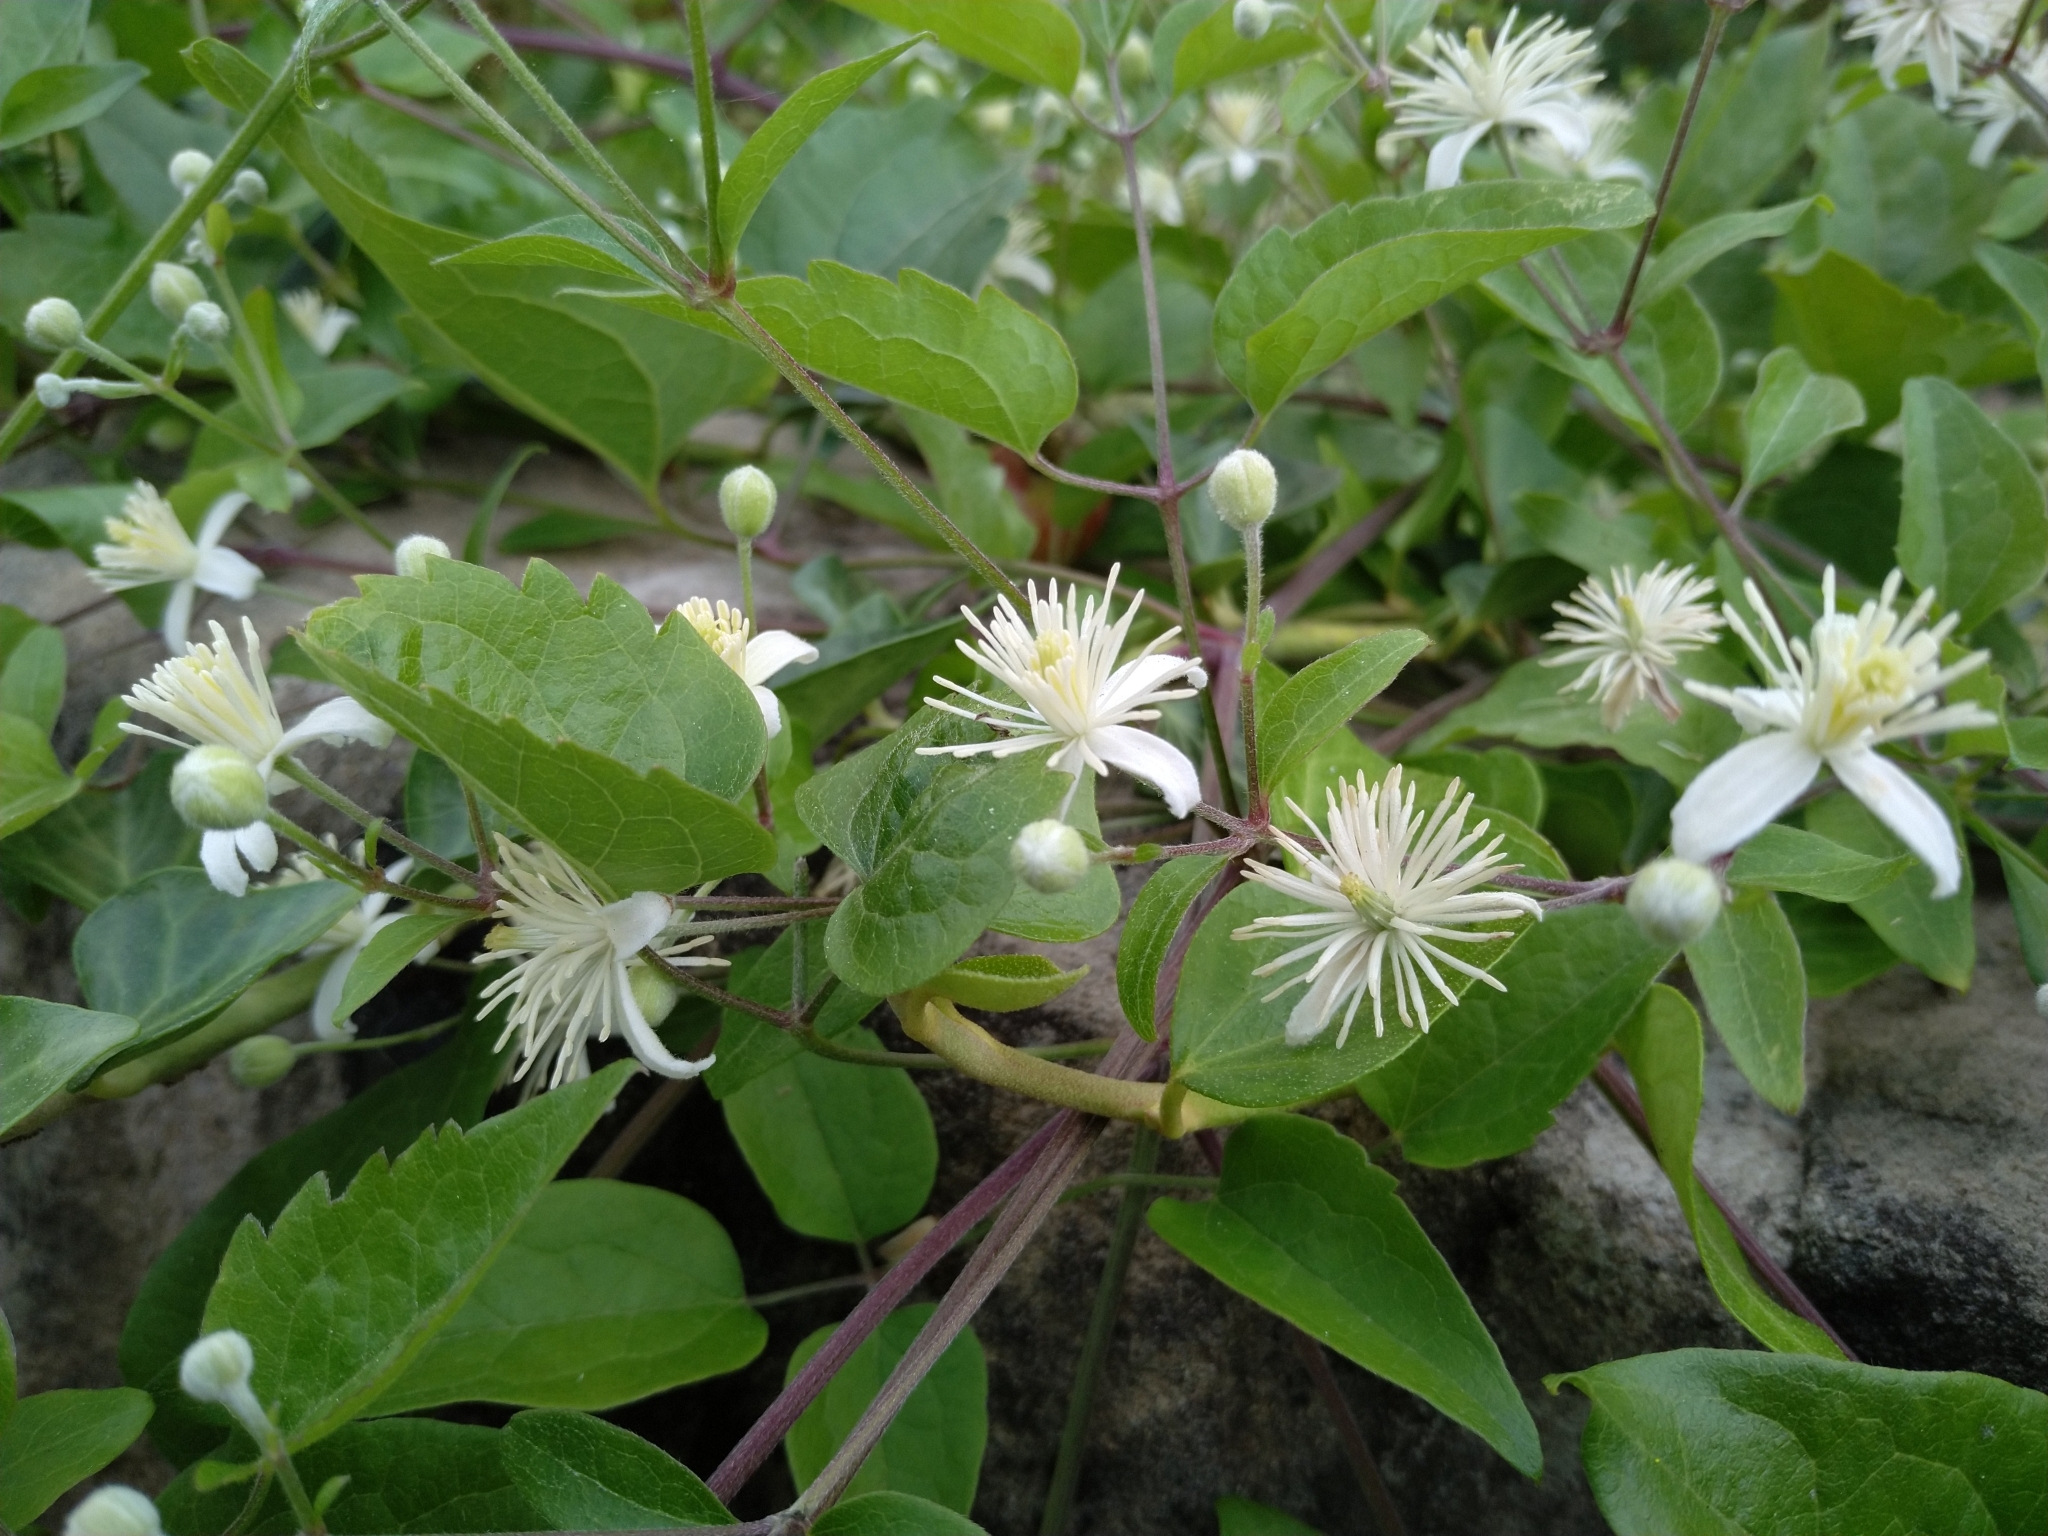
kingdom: Plantae
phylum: Tracheophyta
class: Magnoliopsida
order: Ranunculales
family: Ranunculaceae
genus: Clematis
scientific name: Clematis vitalba
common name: Evergreen clematis
